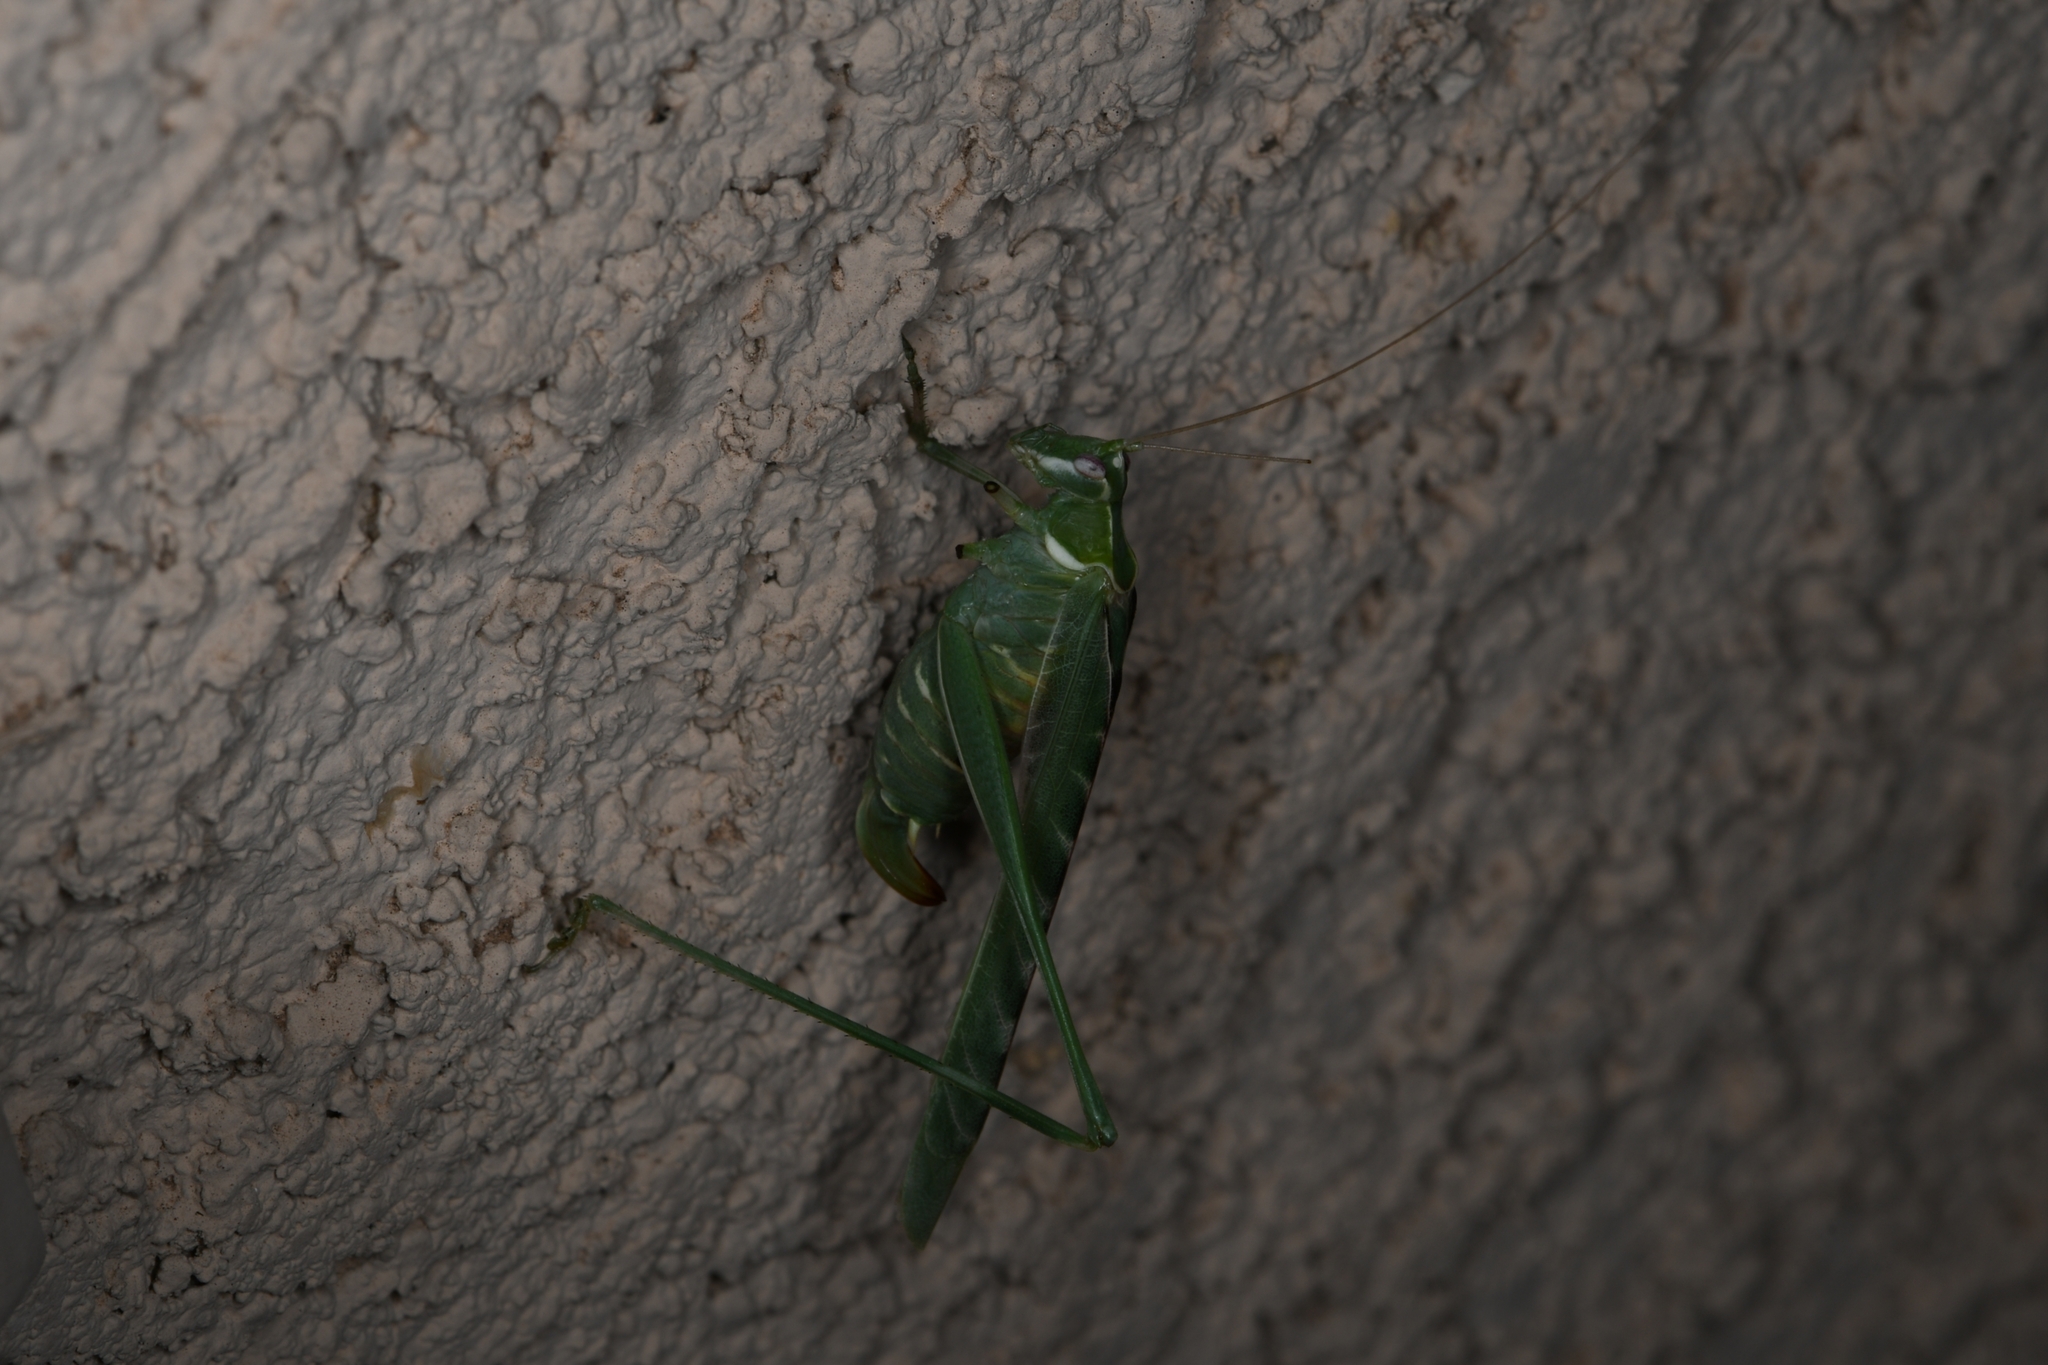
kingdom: Animalia
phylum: Arthropoda
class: Insecta
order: Orthoptera
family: Tettigoniidae
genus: Insara
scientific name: Insara elegans
